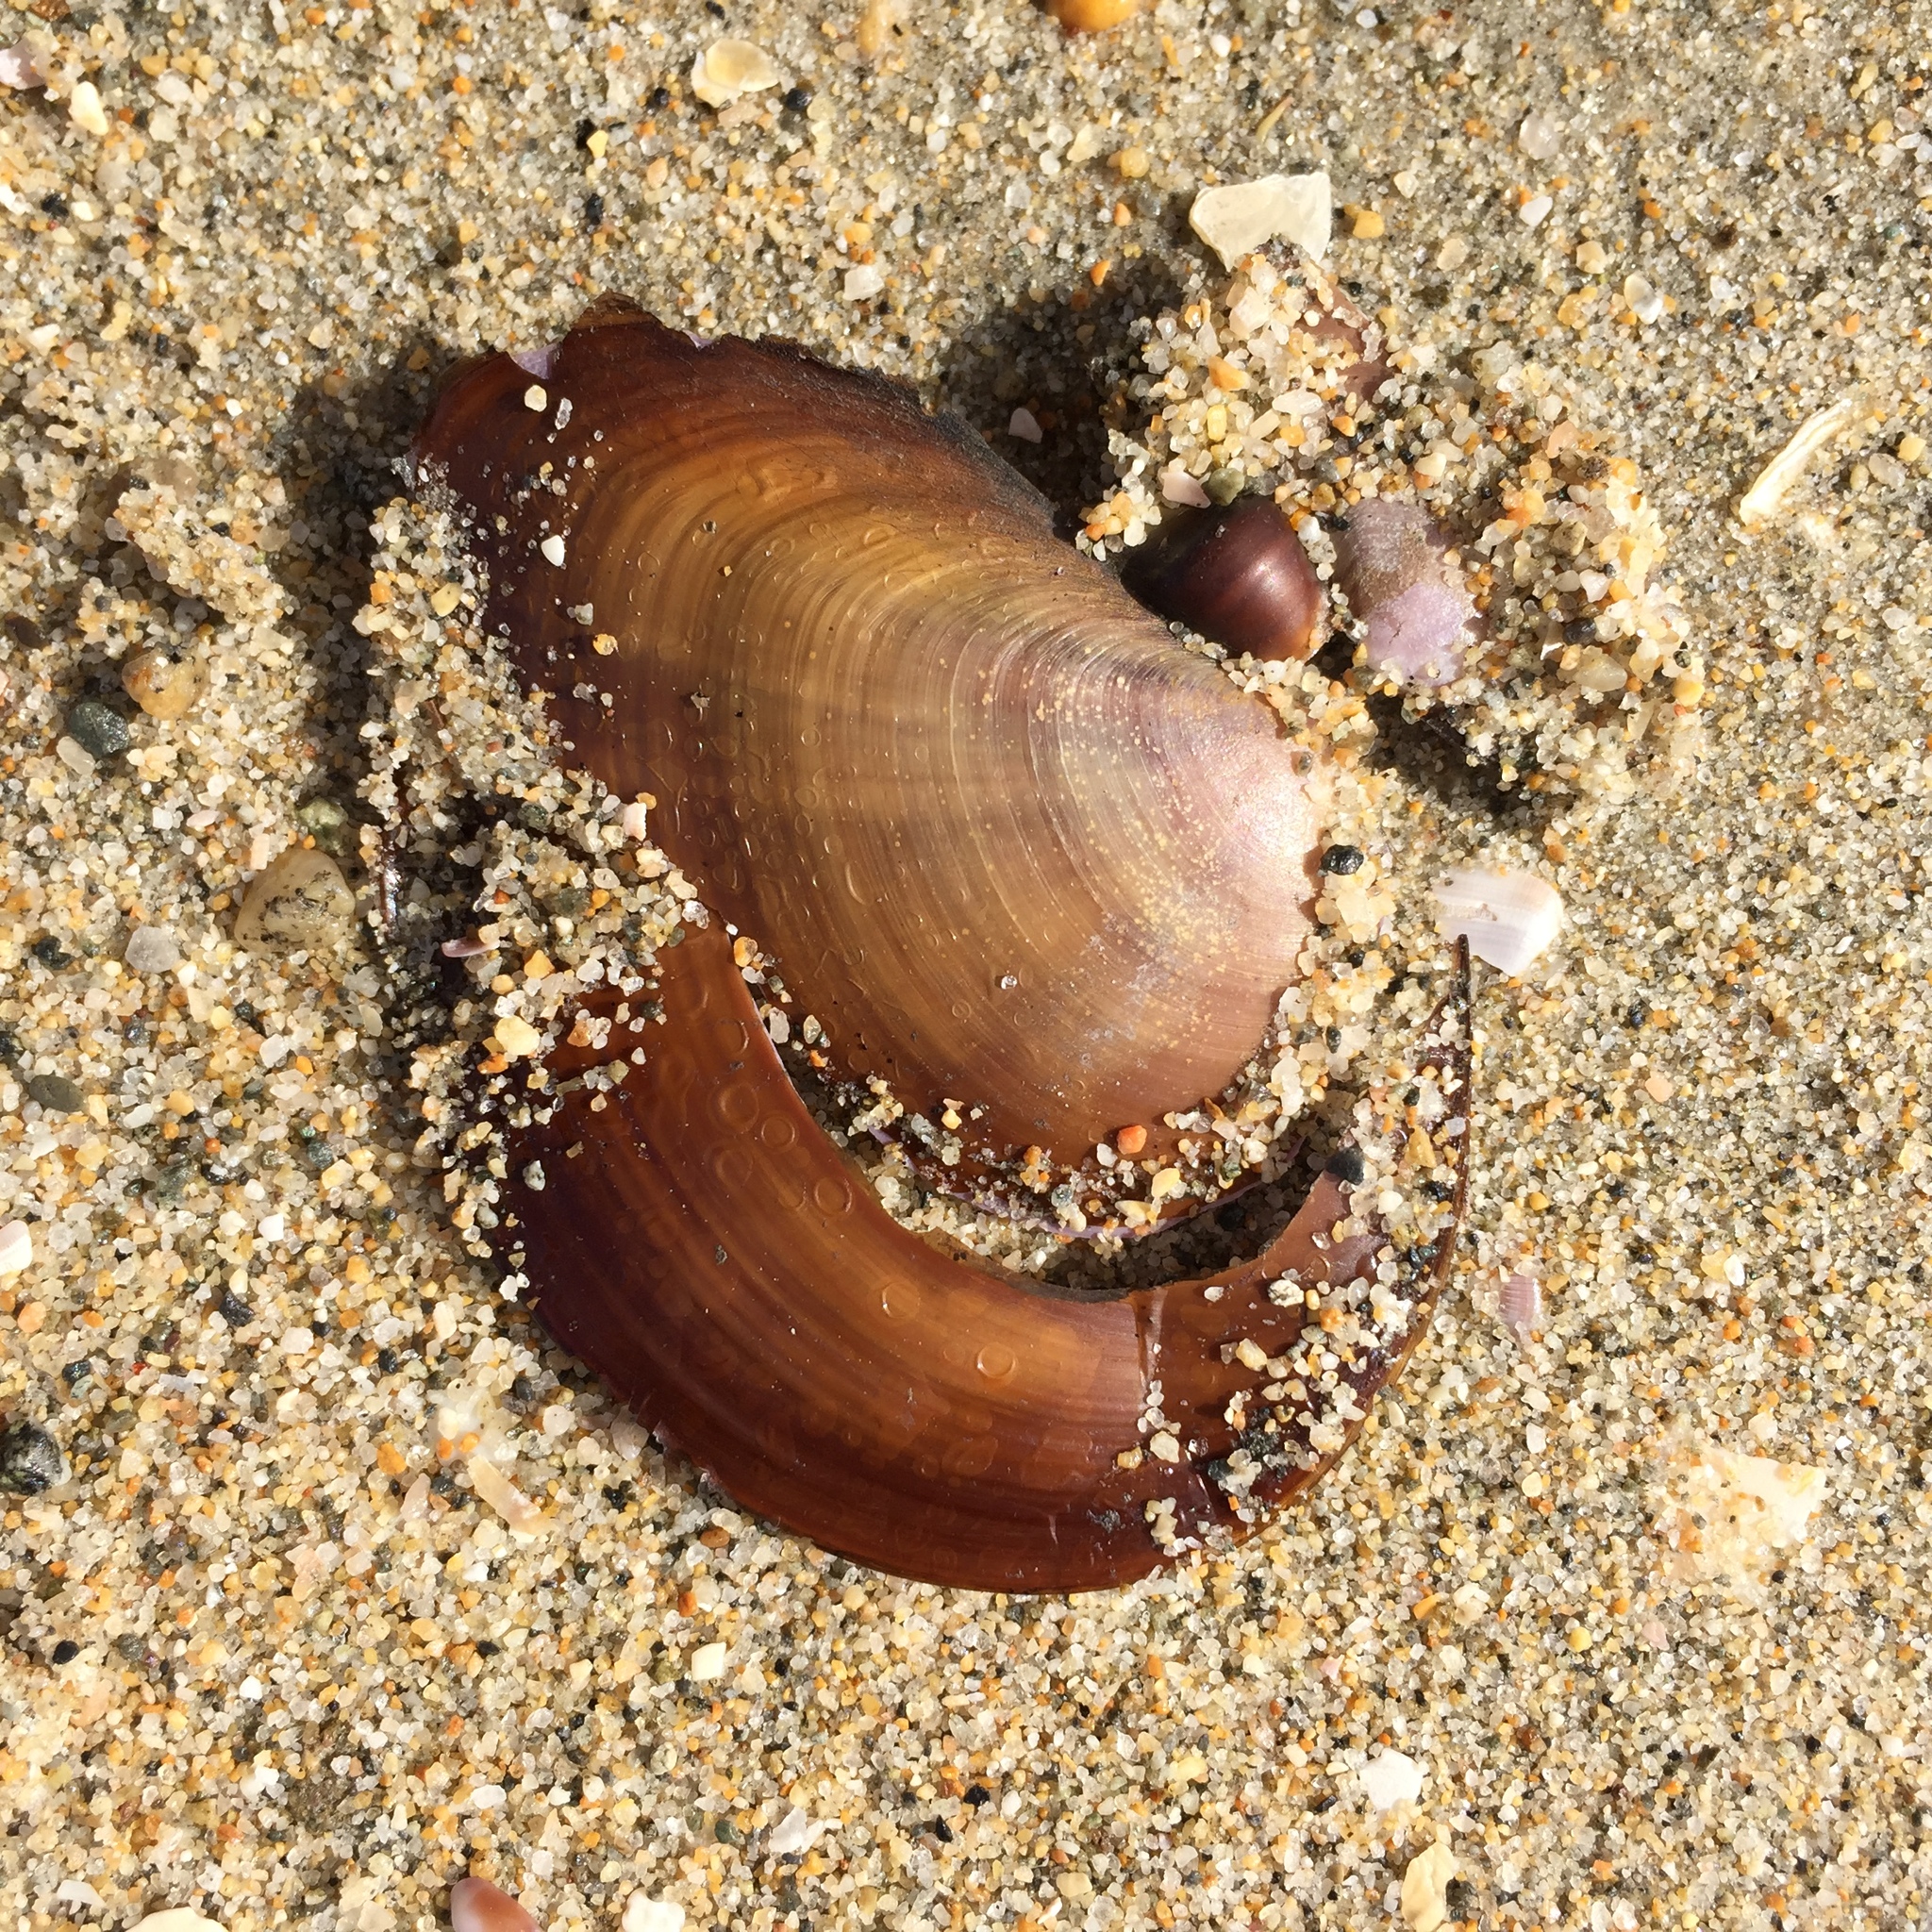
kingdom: Animalia
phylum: Mollusca
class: Bivalvia
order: Cardiida
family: Psammobiidae
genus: Nuttallia
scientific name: Nuttallia nuttallii
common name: California mahogany-clam
